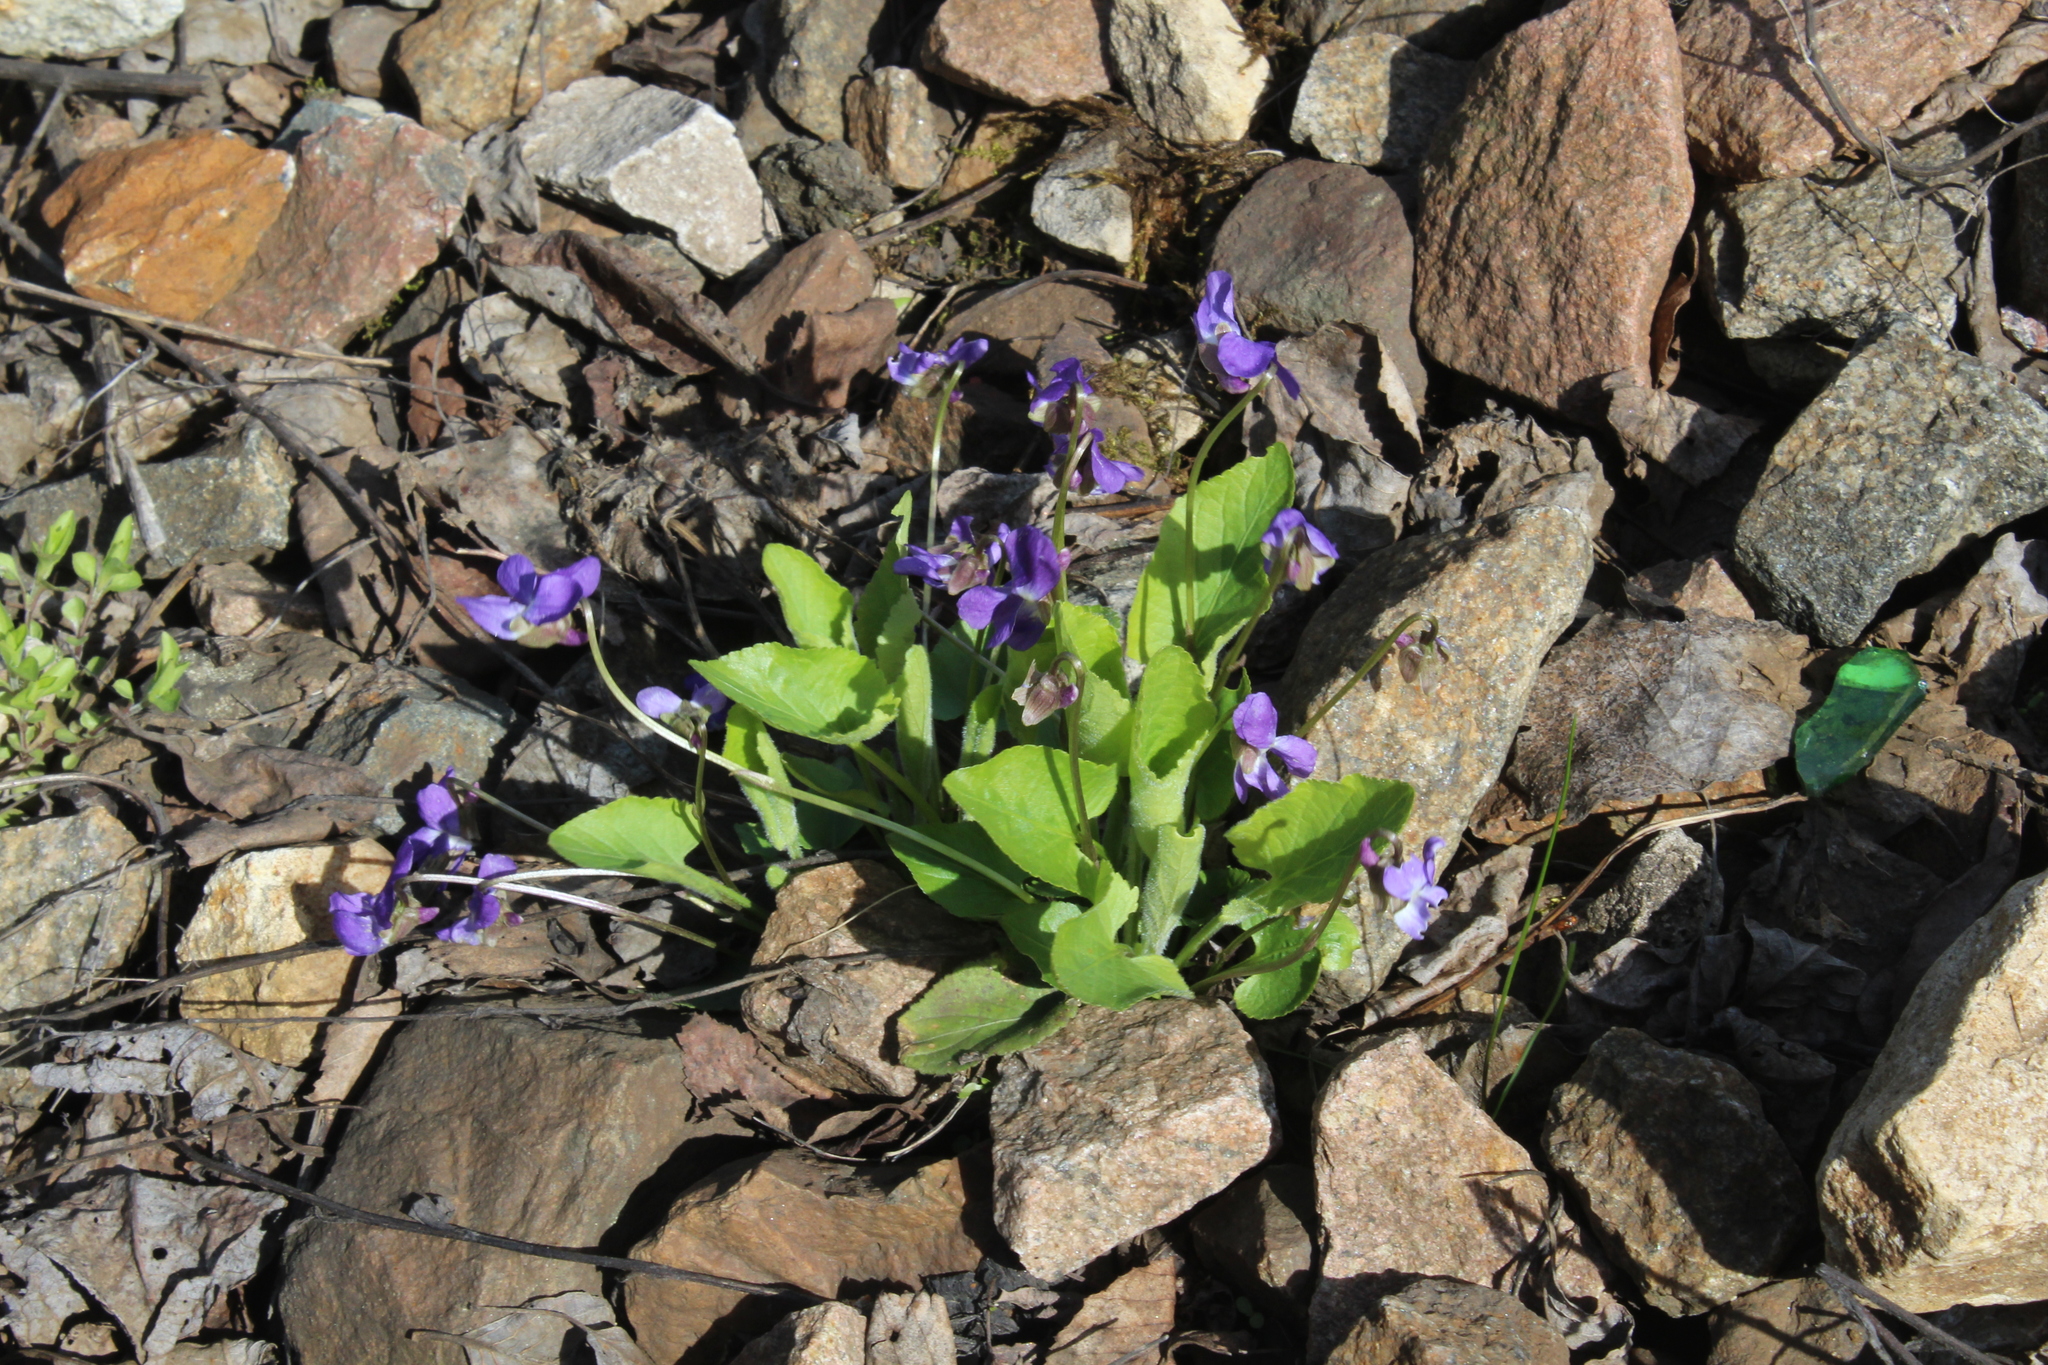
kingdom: Plantae
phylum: Tracheophyta
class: Magnoliopsida
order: Malpighiales
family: Violaceae
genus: Viola
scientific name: Viola hirta
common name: Hairy violet
